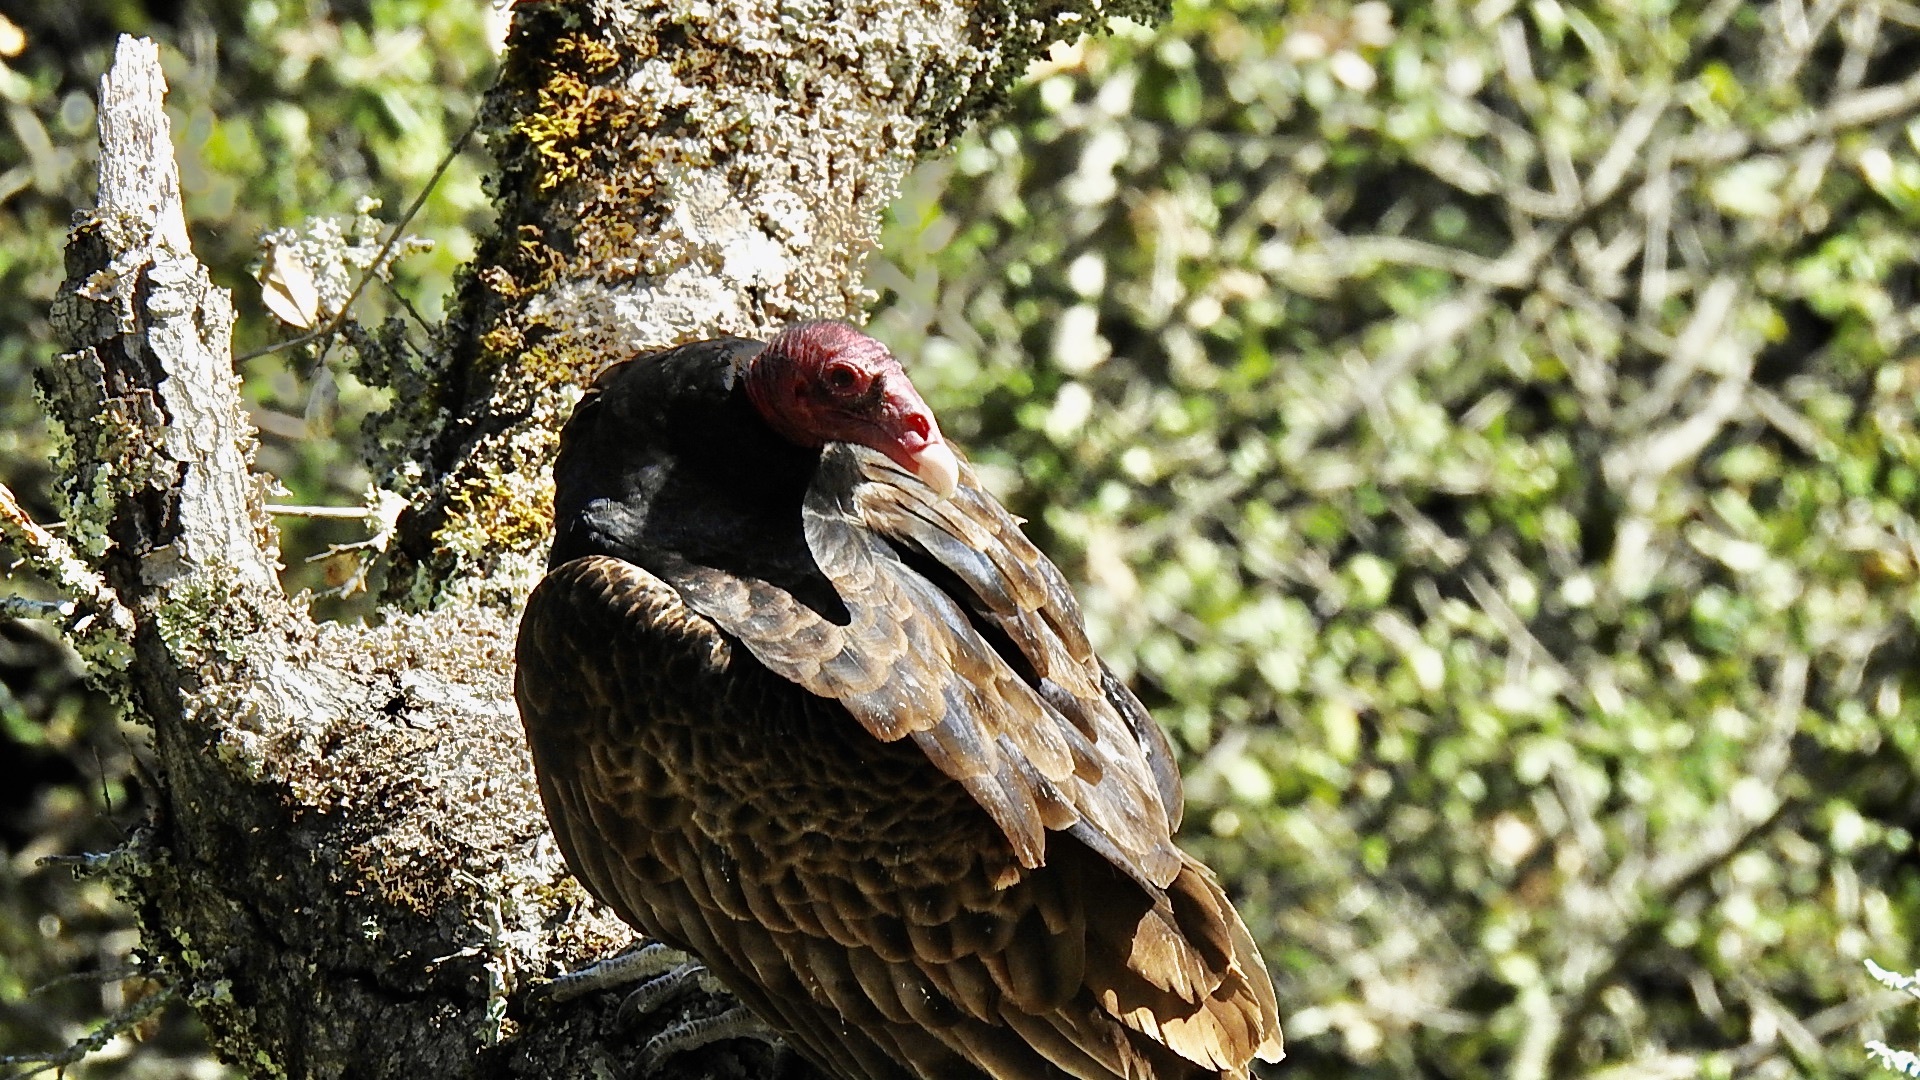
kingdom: Animalia
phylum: Chordata
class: Aves
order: Accipitriformes
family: Cathartidae
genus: Cathartes
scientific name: Cathartes aura
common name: Turkey vulture
